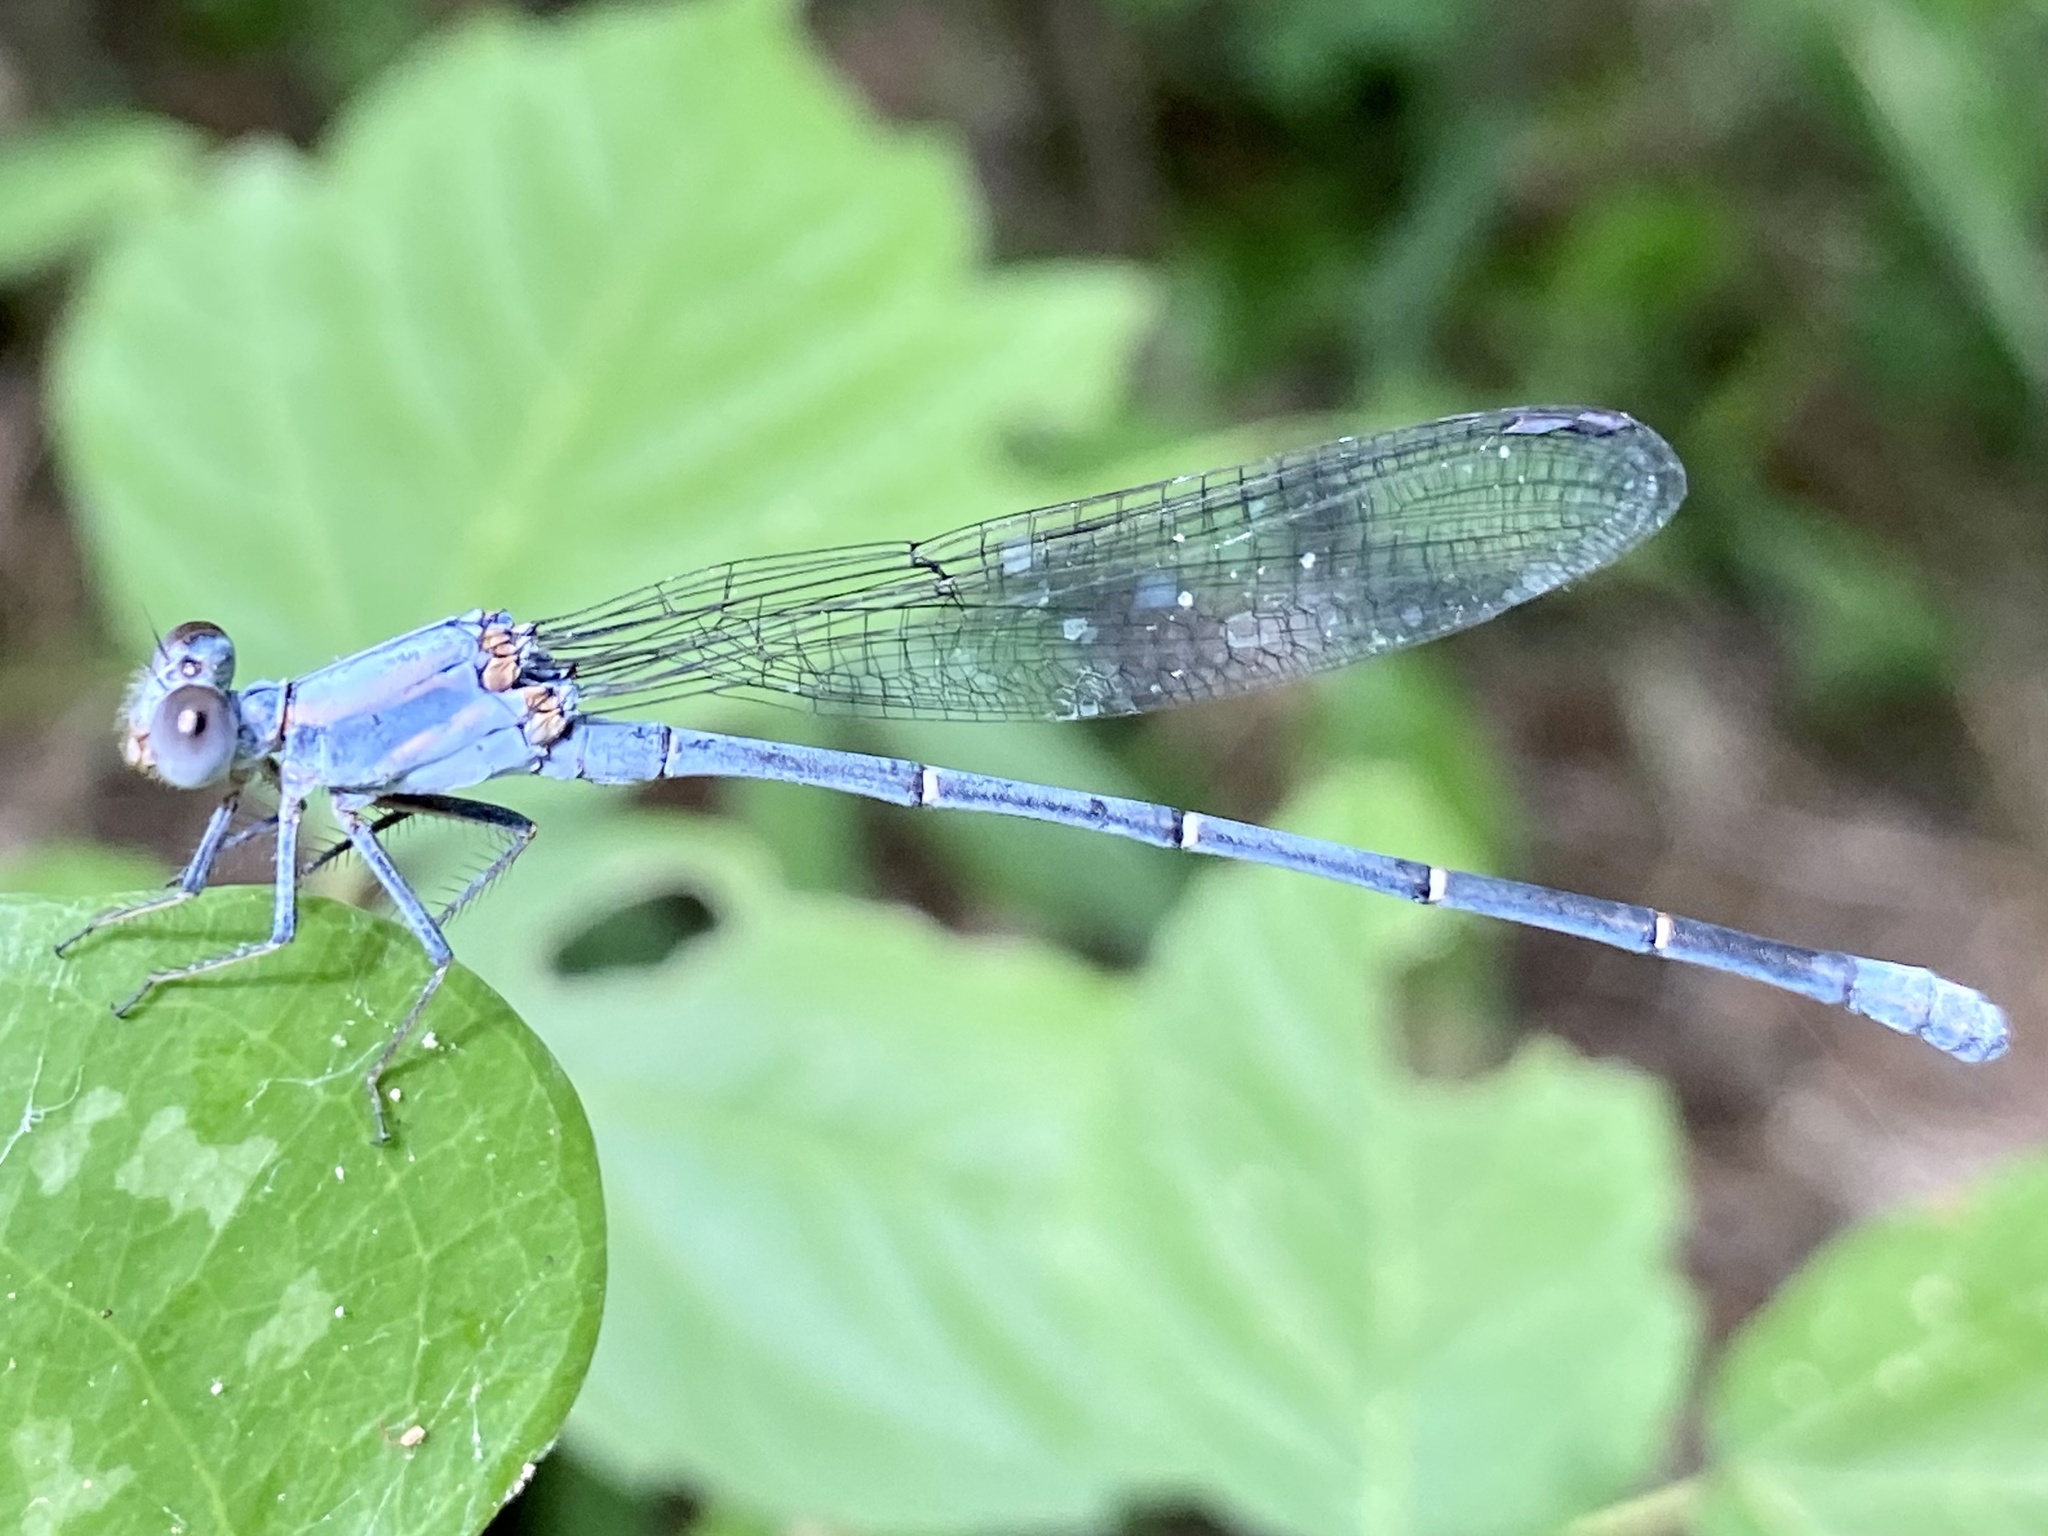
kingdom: Animalia
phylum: Arthropoda
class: Insecta
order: Odonata
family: Coenagrionidae
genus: Argia
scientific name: Argia moesta
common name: Powdered dancer
